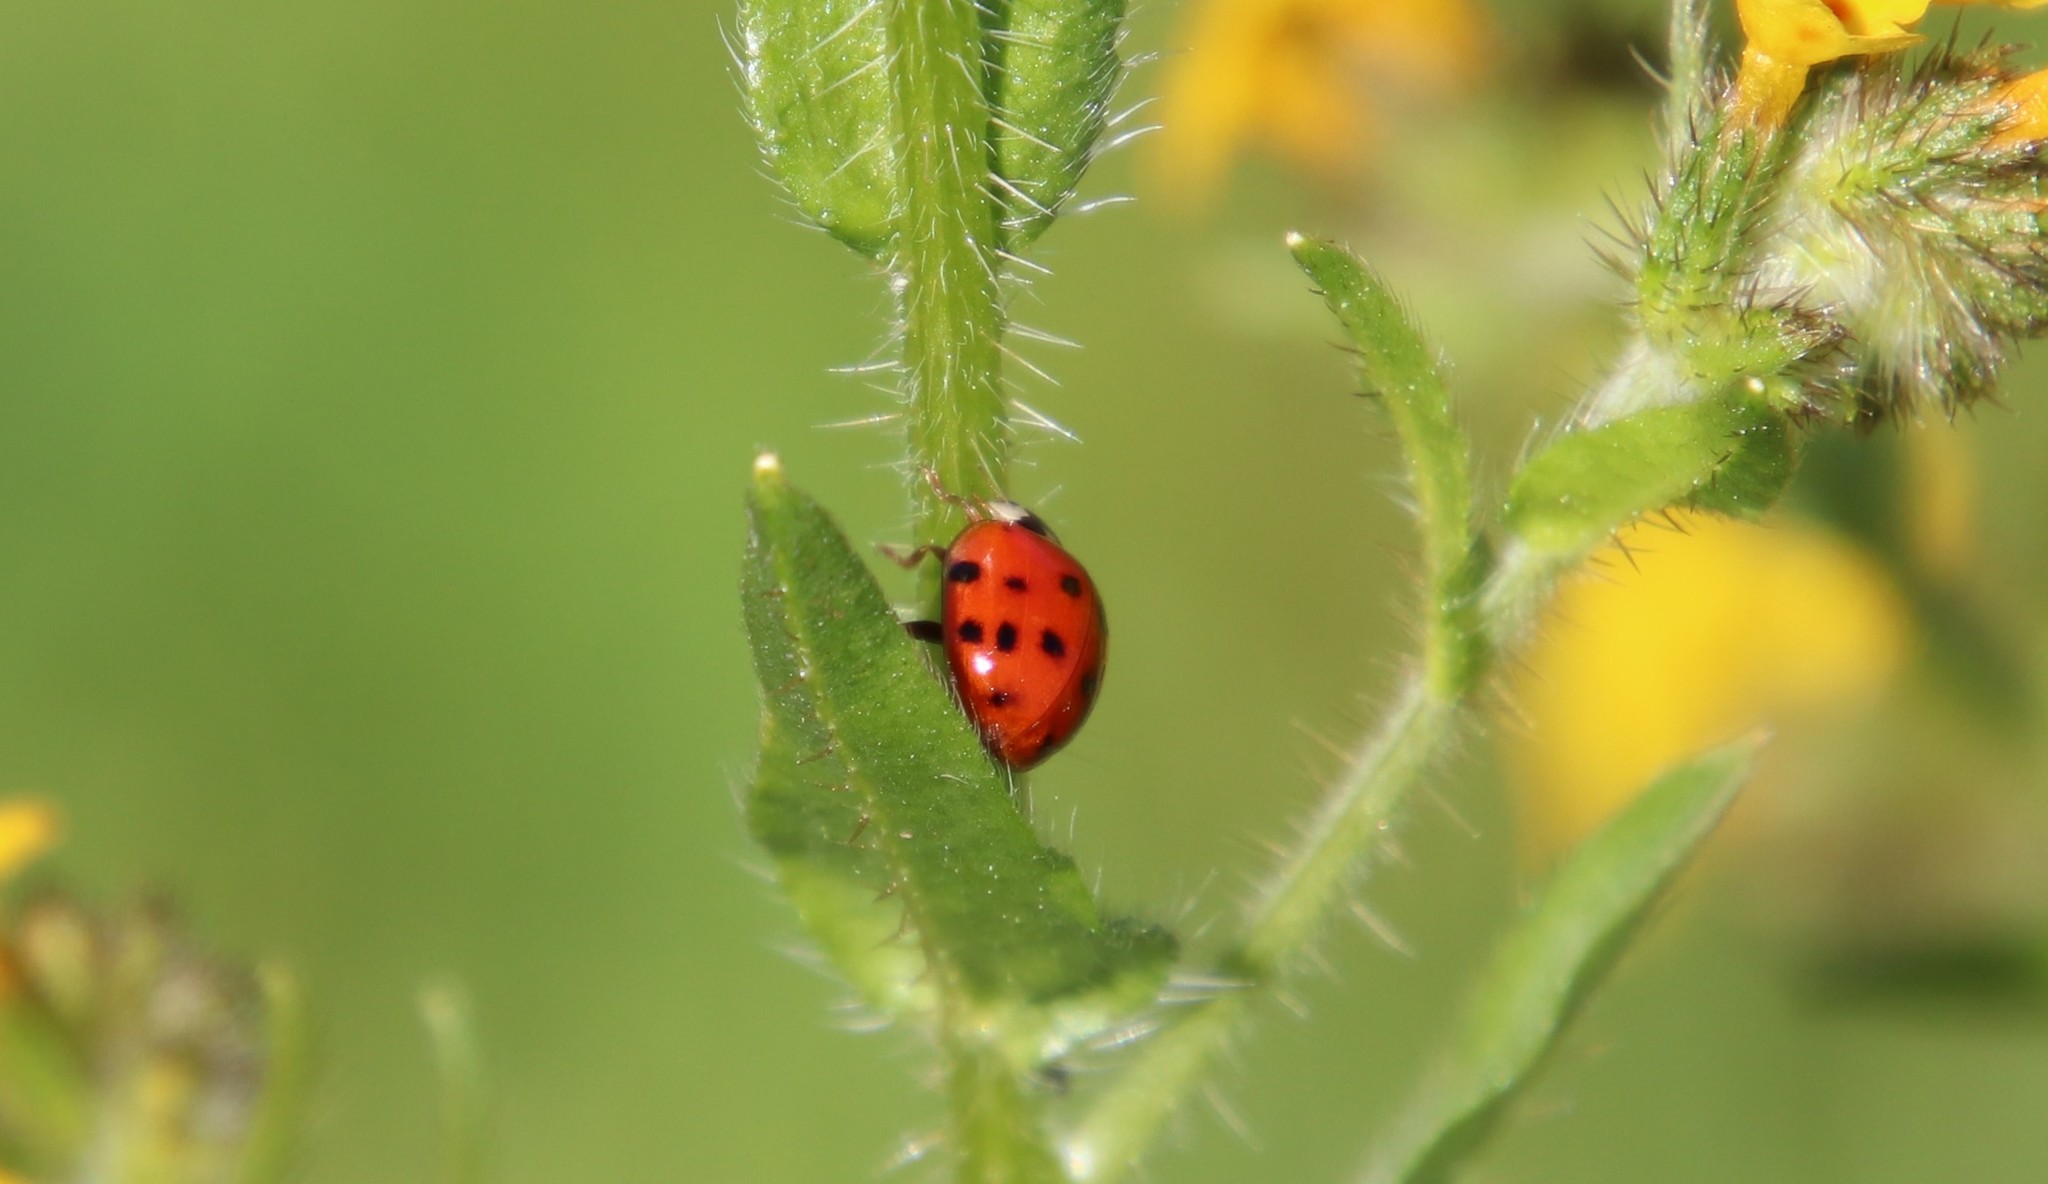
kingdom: Animalia
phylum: Arthropoda
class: Insecta
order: Coleoptera
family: Coccinellidae
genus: Harmonia
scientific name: Harmonia axyridis
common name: Harlequin ladybird
